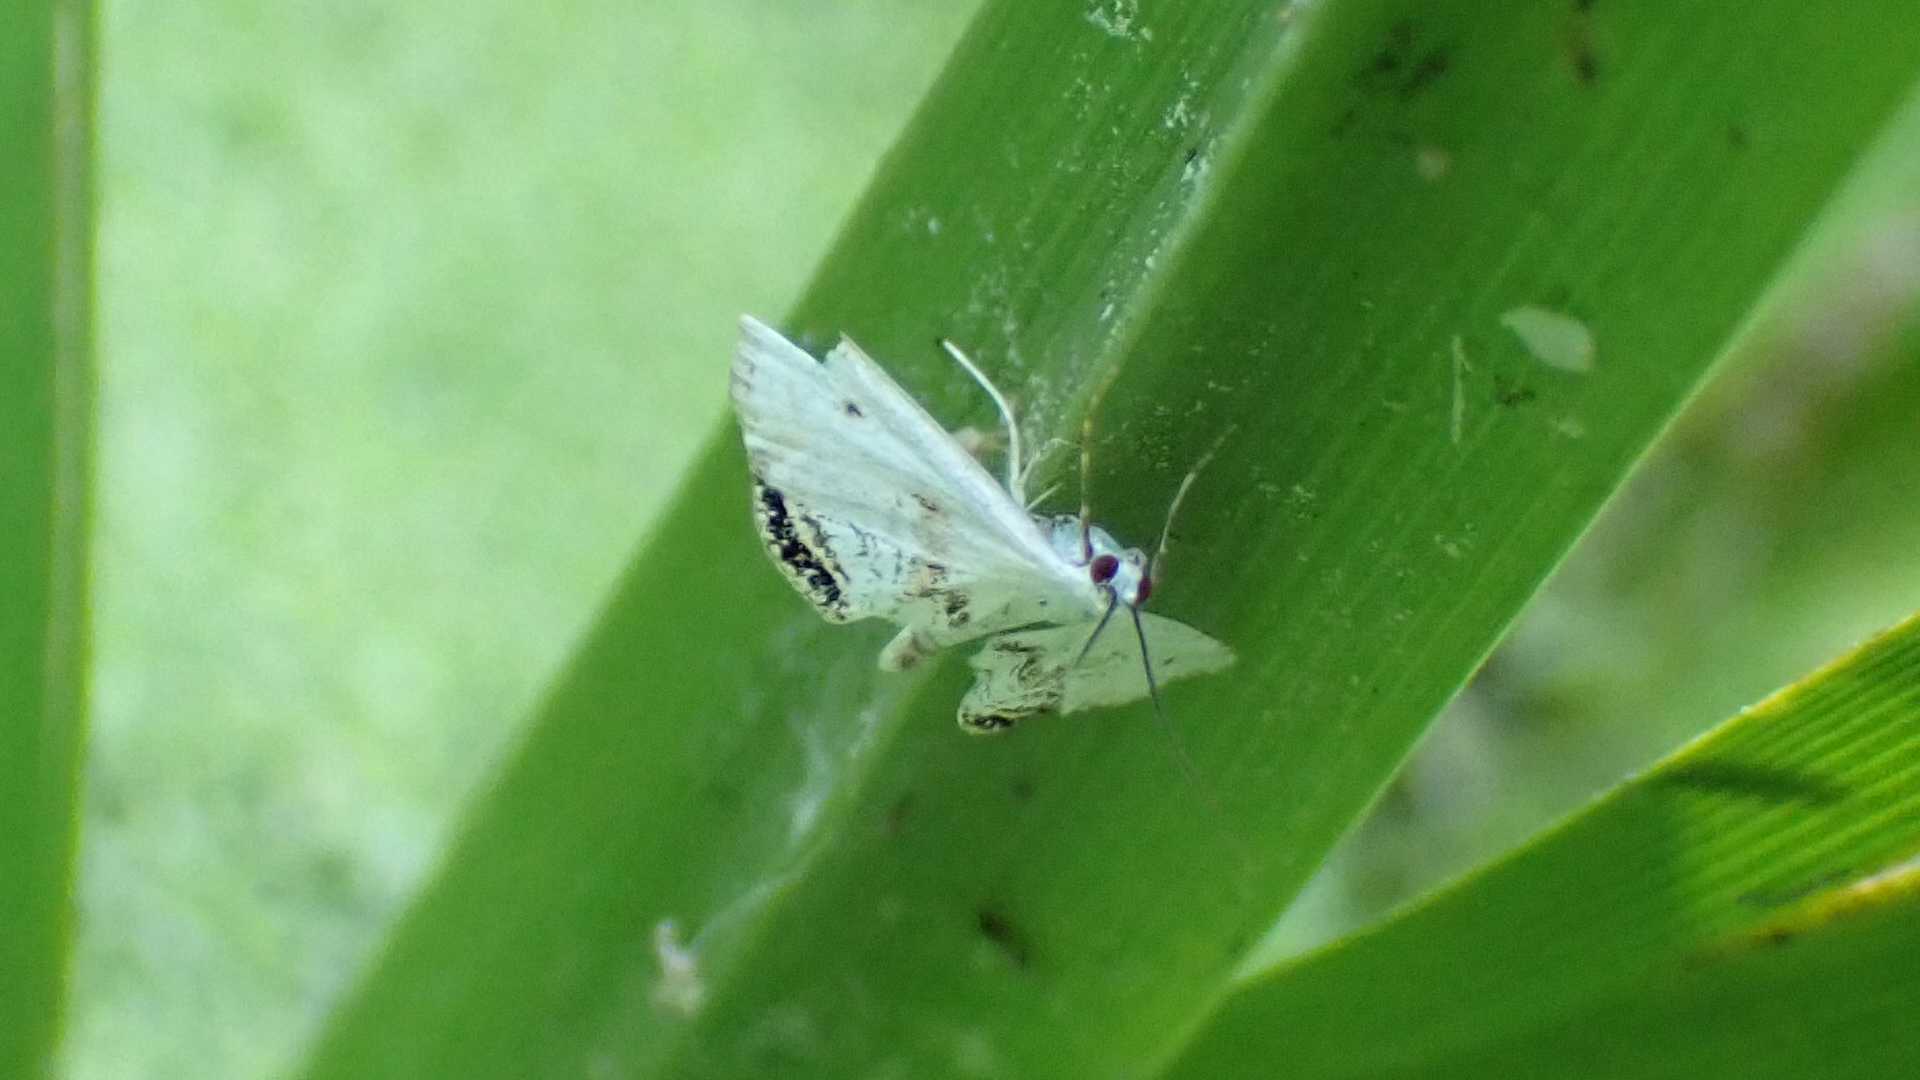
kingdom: Animalia
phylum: Arthropoda
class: Insecta
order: Lepidoptera
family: Crambidae
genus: Cataclysta
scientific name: Cataclysta lemnata
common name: Small china-mark
